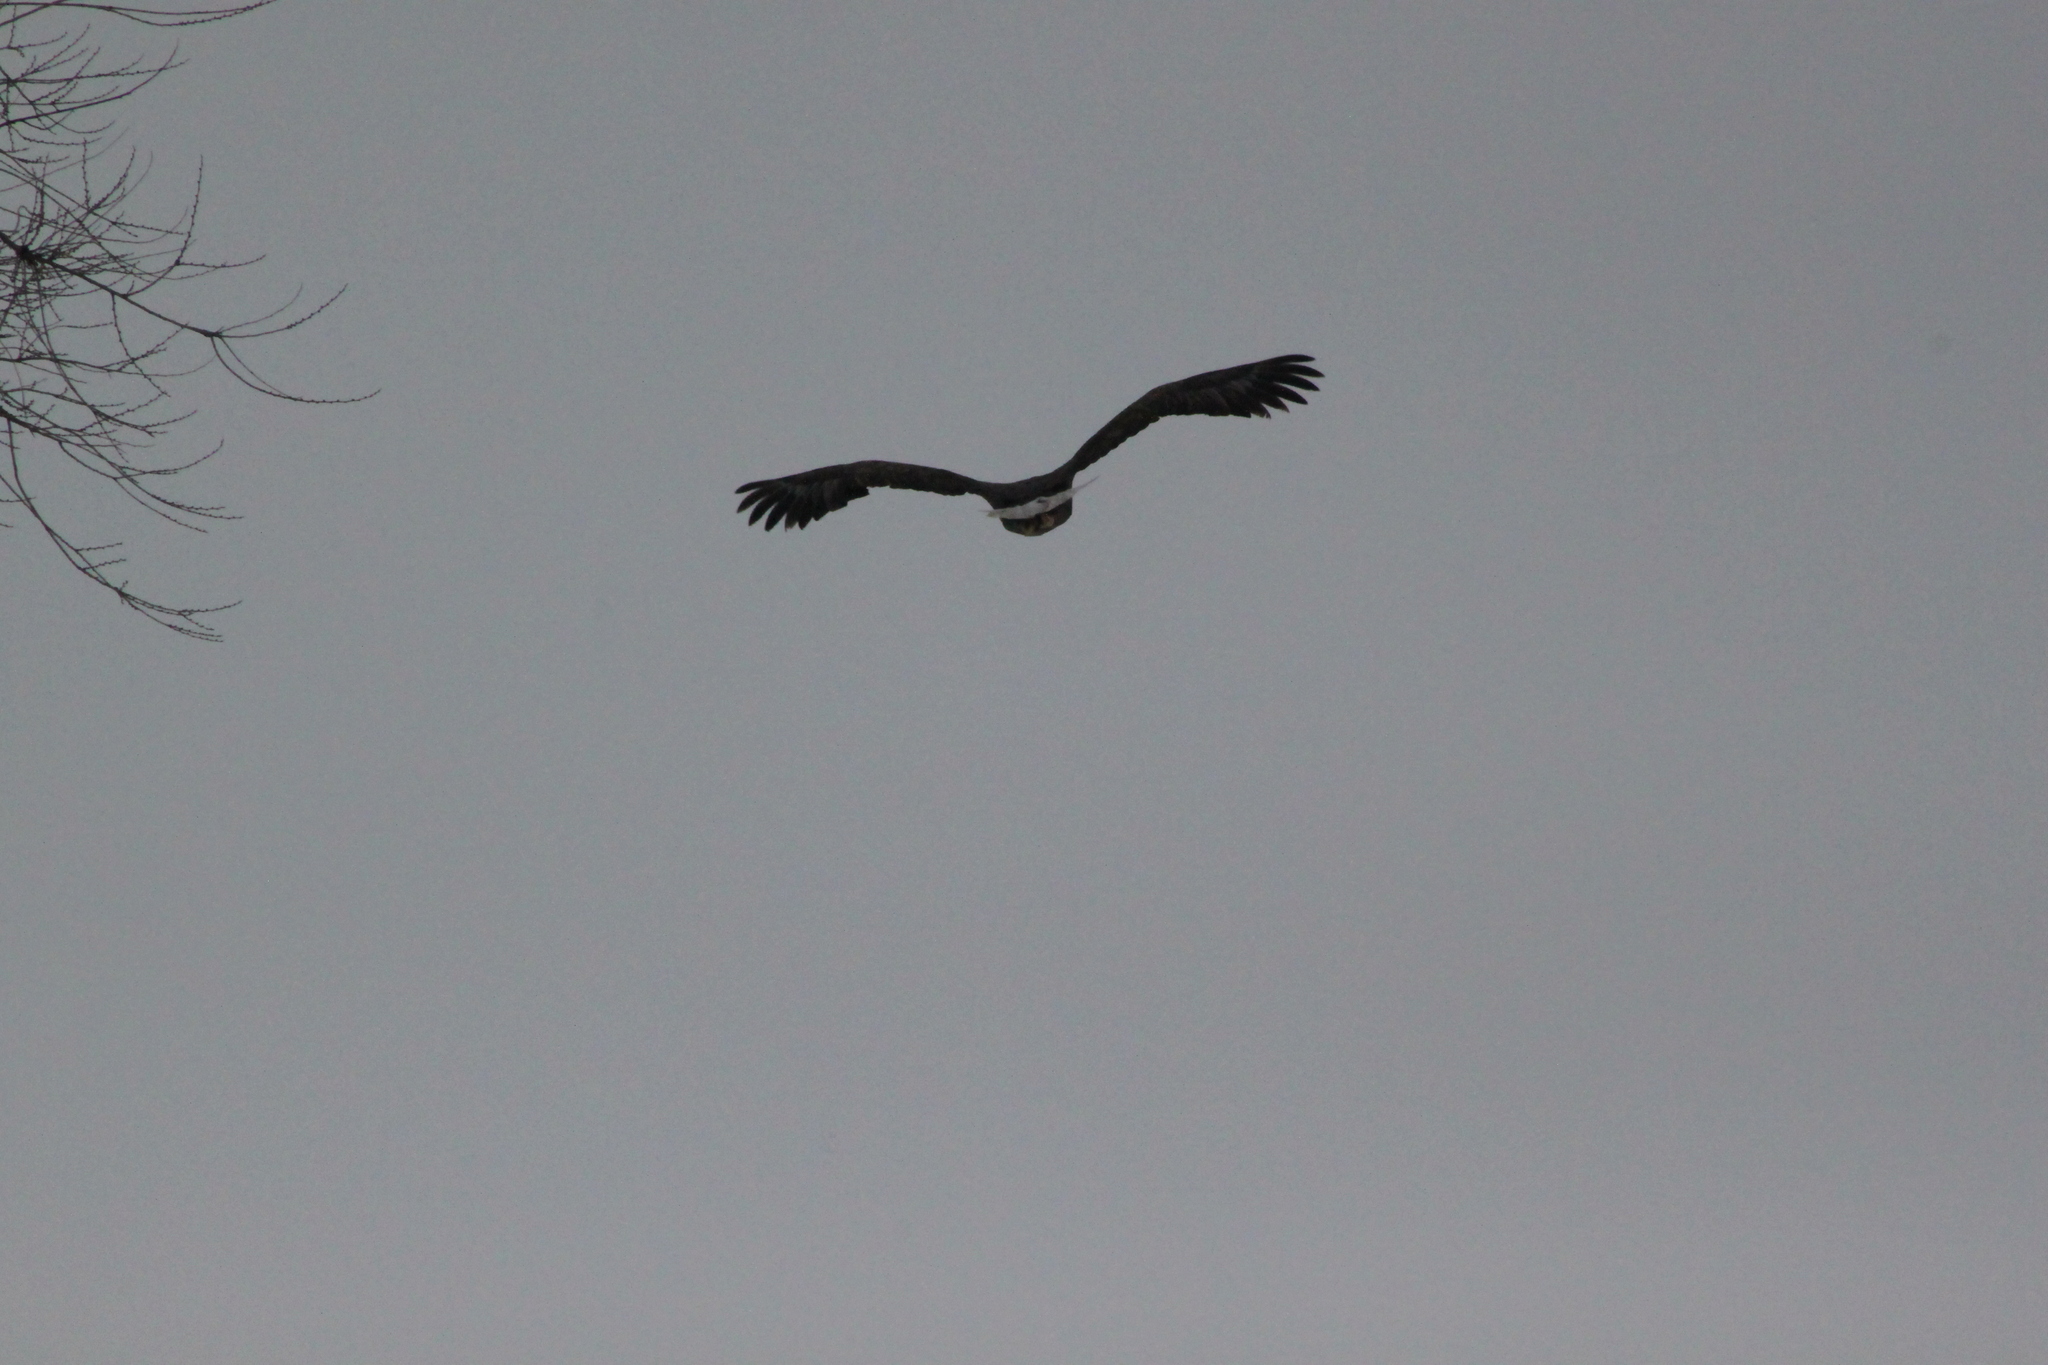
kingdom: Animalia
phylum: Chordata
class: Aves
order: Accipitriformes
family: Accipitridae
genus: Haliaeetus
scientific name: Haliaeetus albicilla
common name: White-tailed eagle
